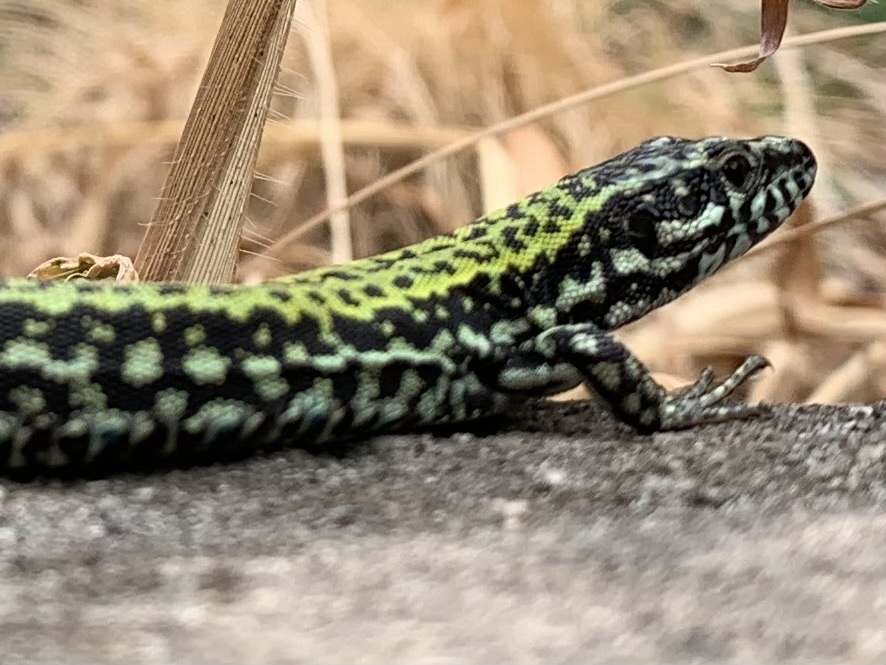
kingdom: Animalia
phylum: Chordata
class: Squamata
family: Lacertidae
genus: Podarcis
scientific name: Podarcis muralis
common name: Common wall lizard
